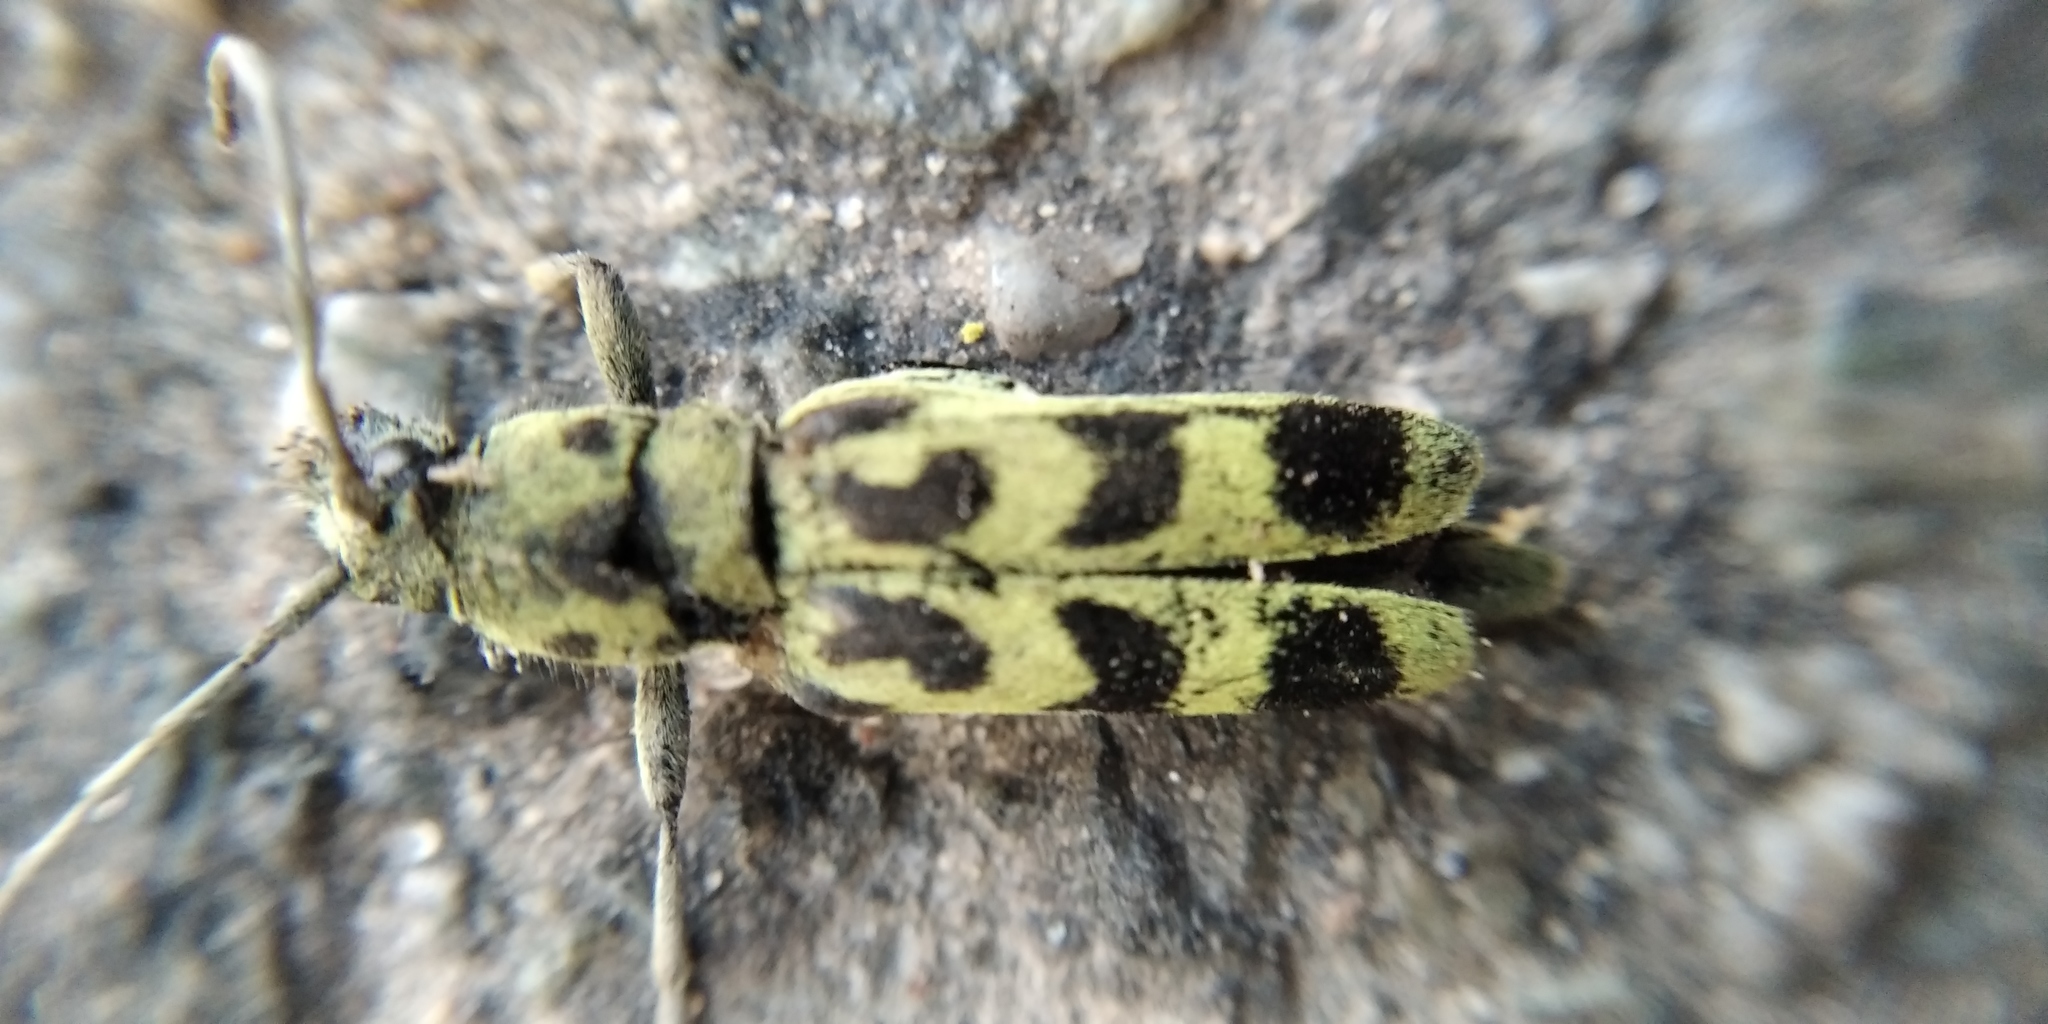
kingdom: Animalia
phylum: Arthropoda
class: Insecta
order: Coleoptera
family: Cerambycidae
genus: Chlorophorus
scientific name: Chlorophorus herbstii
